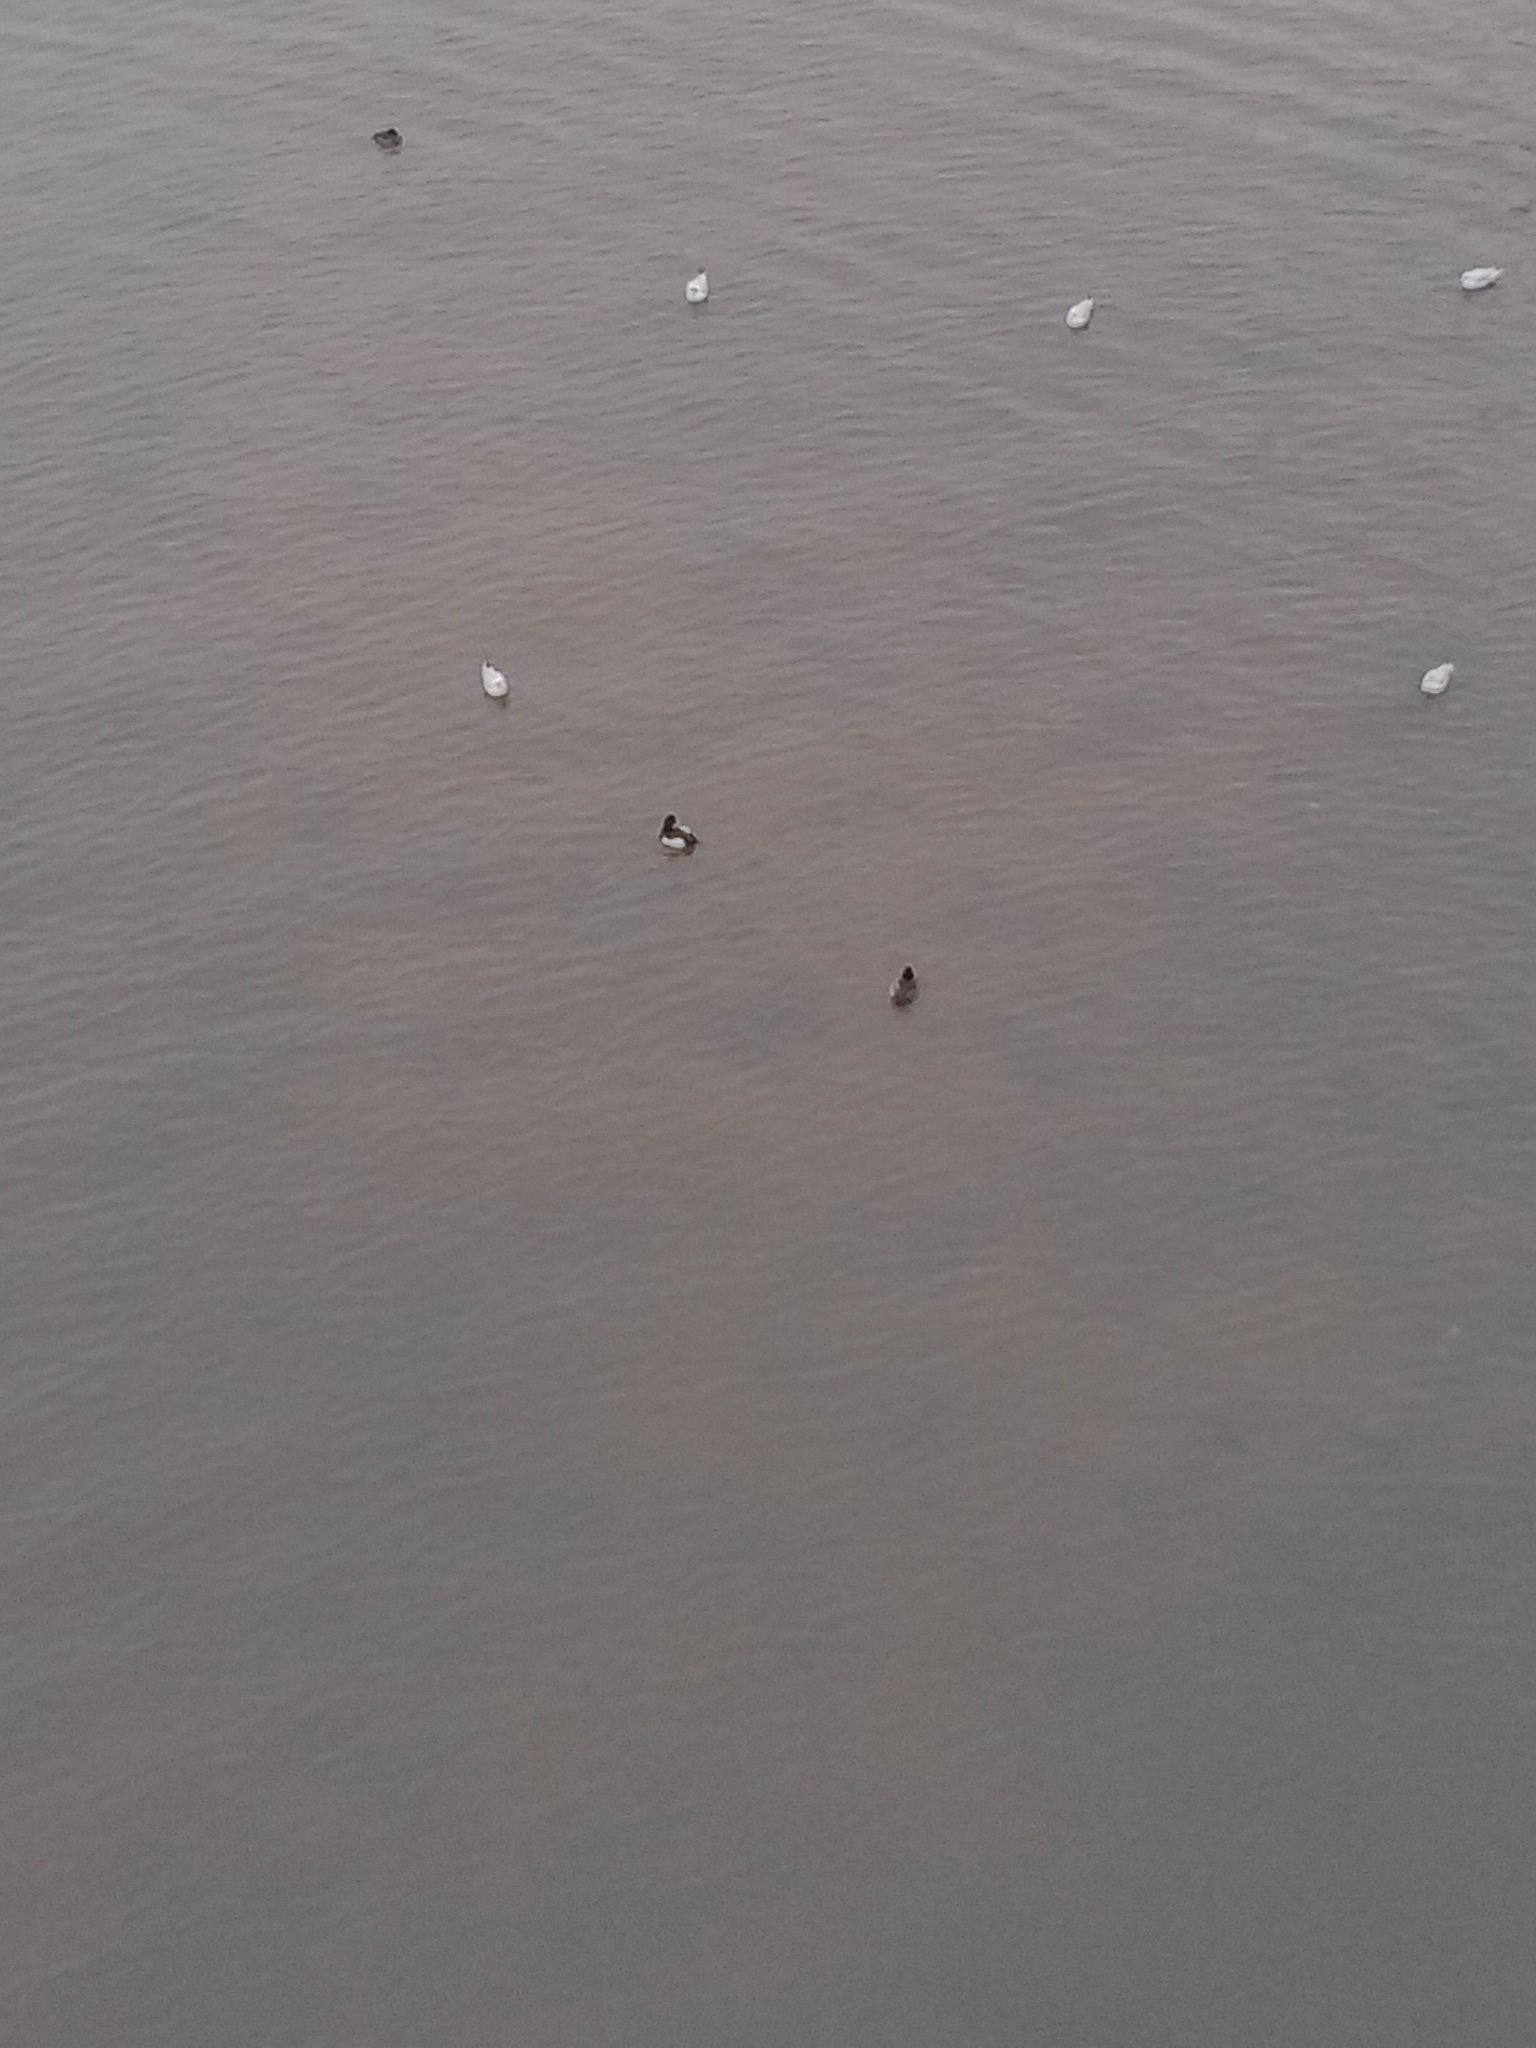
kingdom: Animalia
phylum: Chordata
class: Aves
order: Anseriformes
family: Anatidae
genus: Aythya
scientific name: Aythya fuligula
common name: Tufted duck
